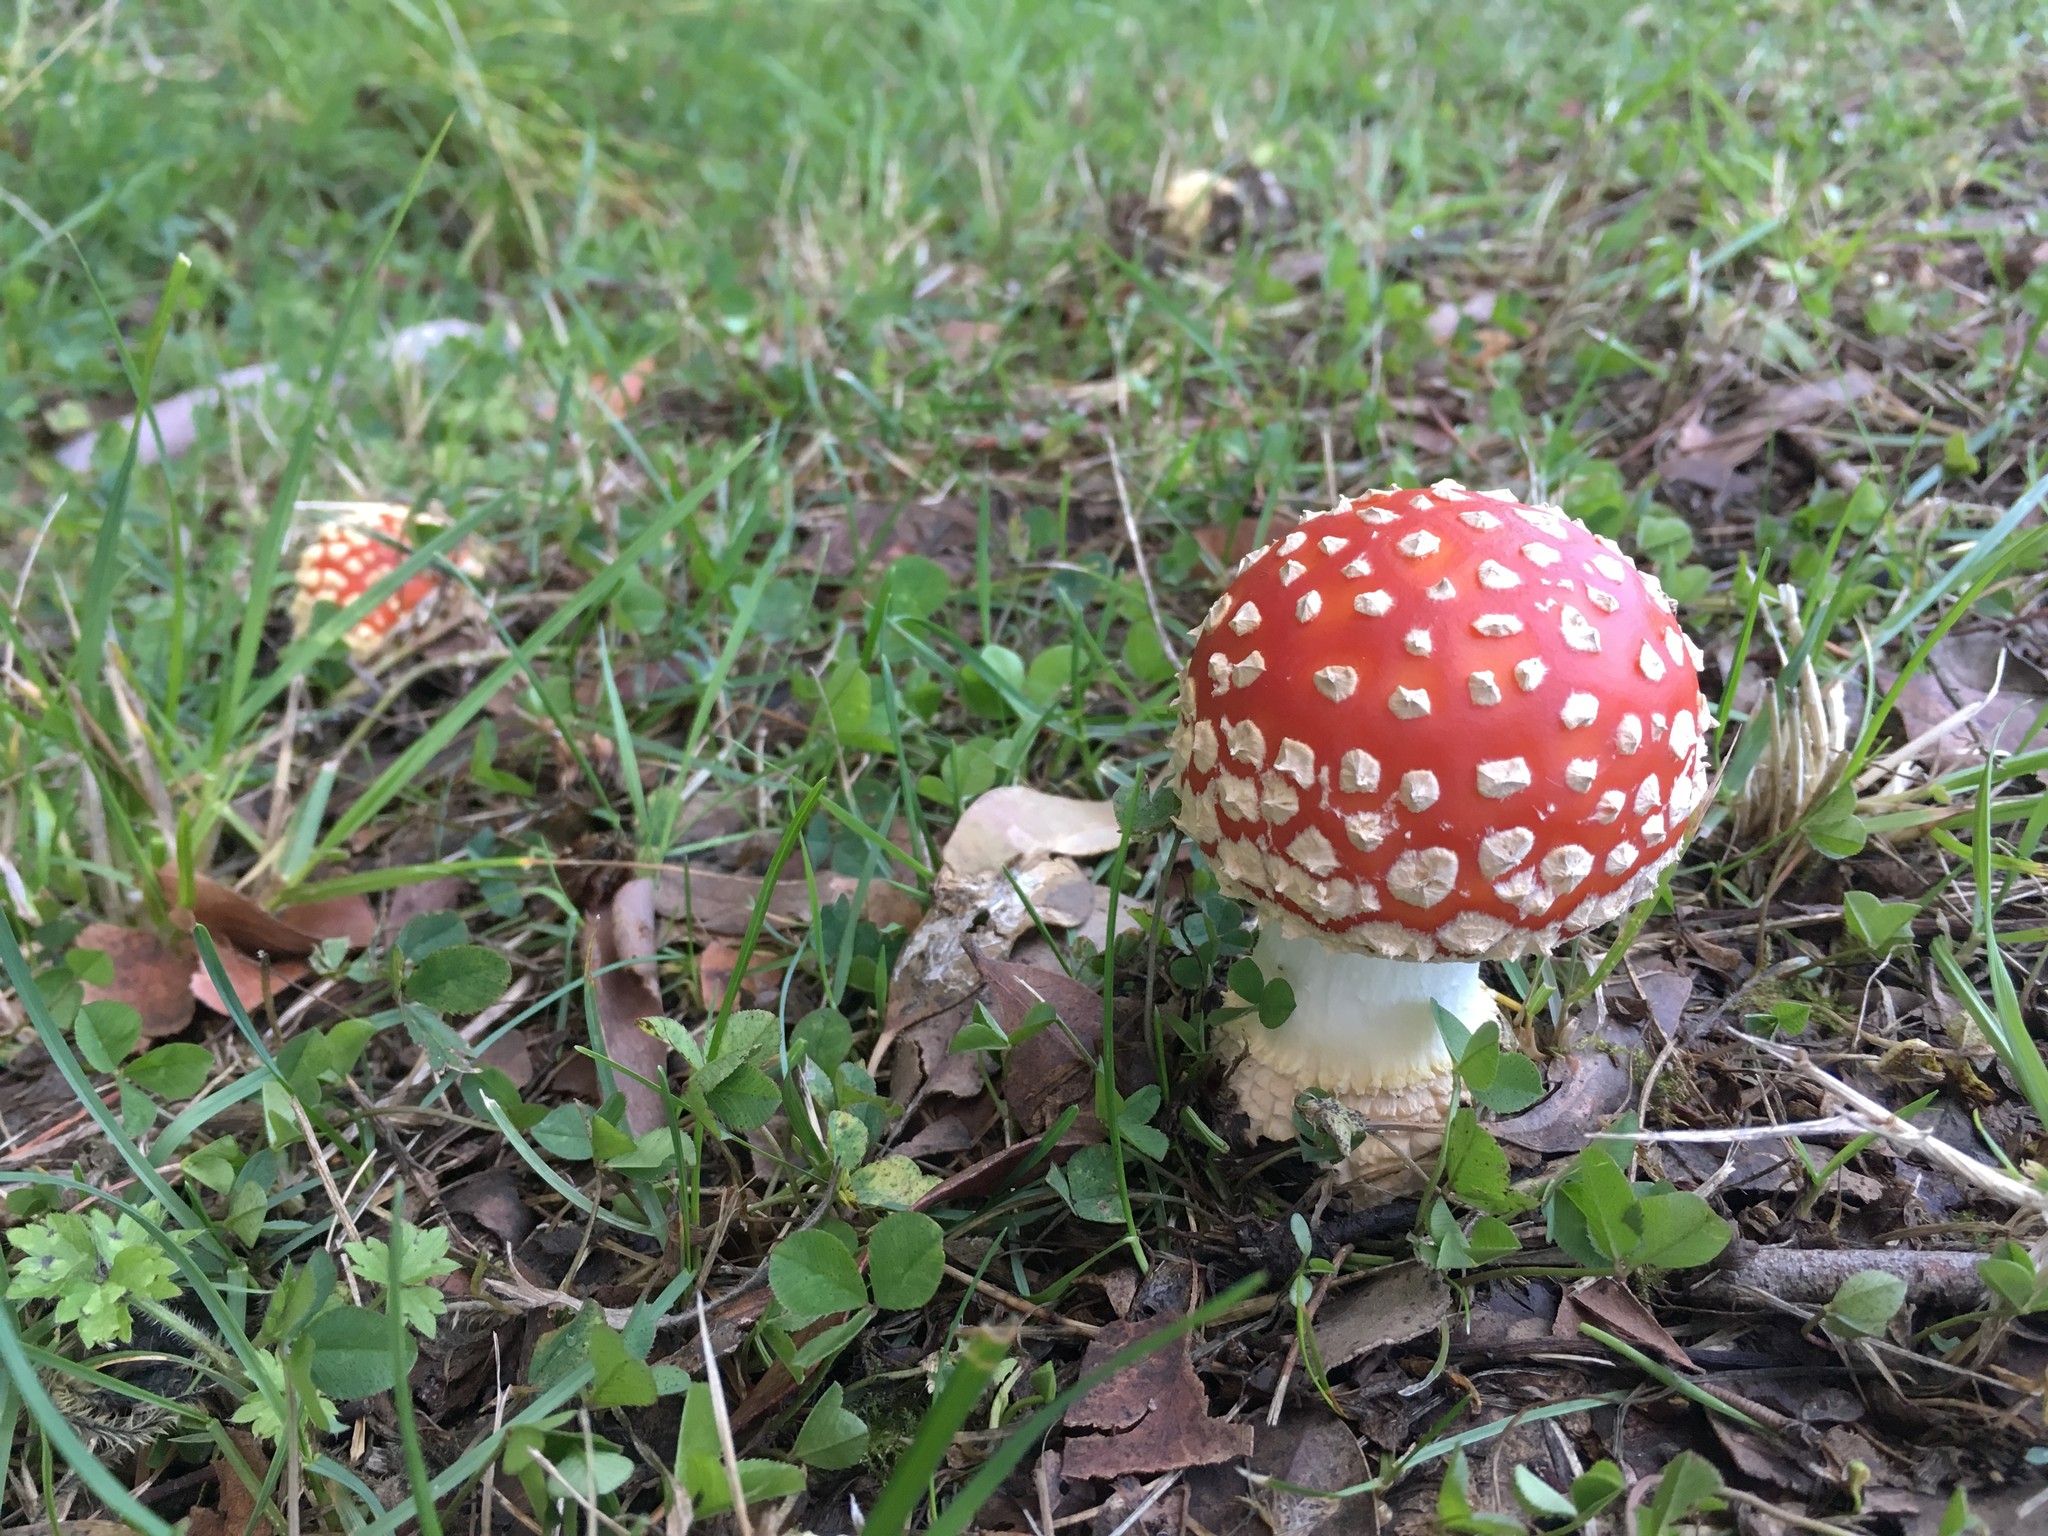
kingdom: Fungi
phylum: Basidiomycota
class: Agaricomycetes
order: Agaricales
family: Amanitaceae
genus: Amanita
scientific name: Amanita muscaria
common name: Fly agaric
